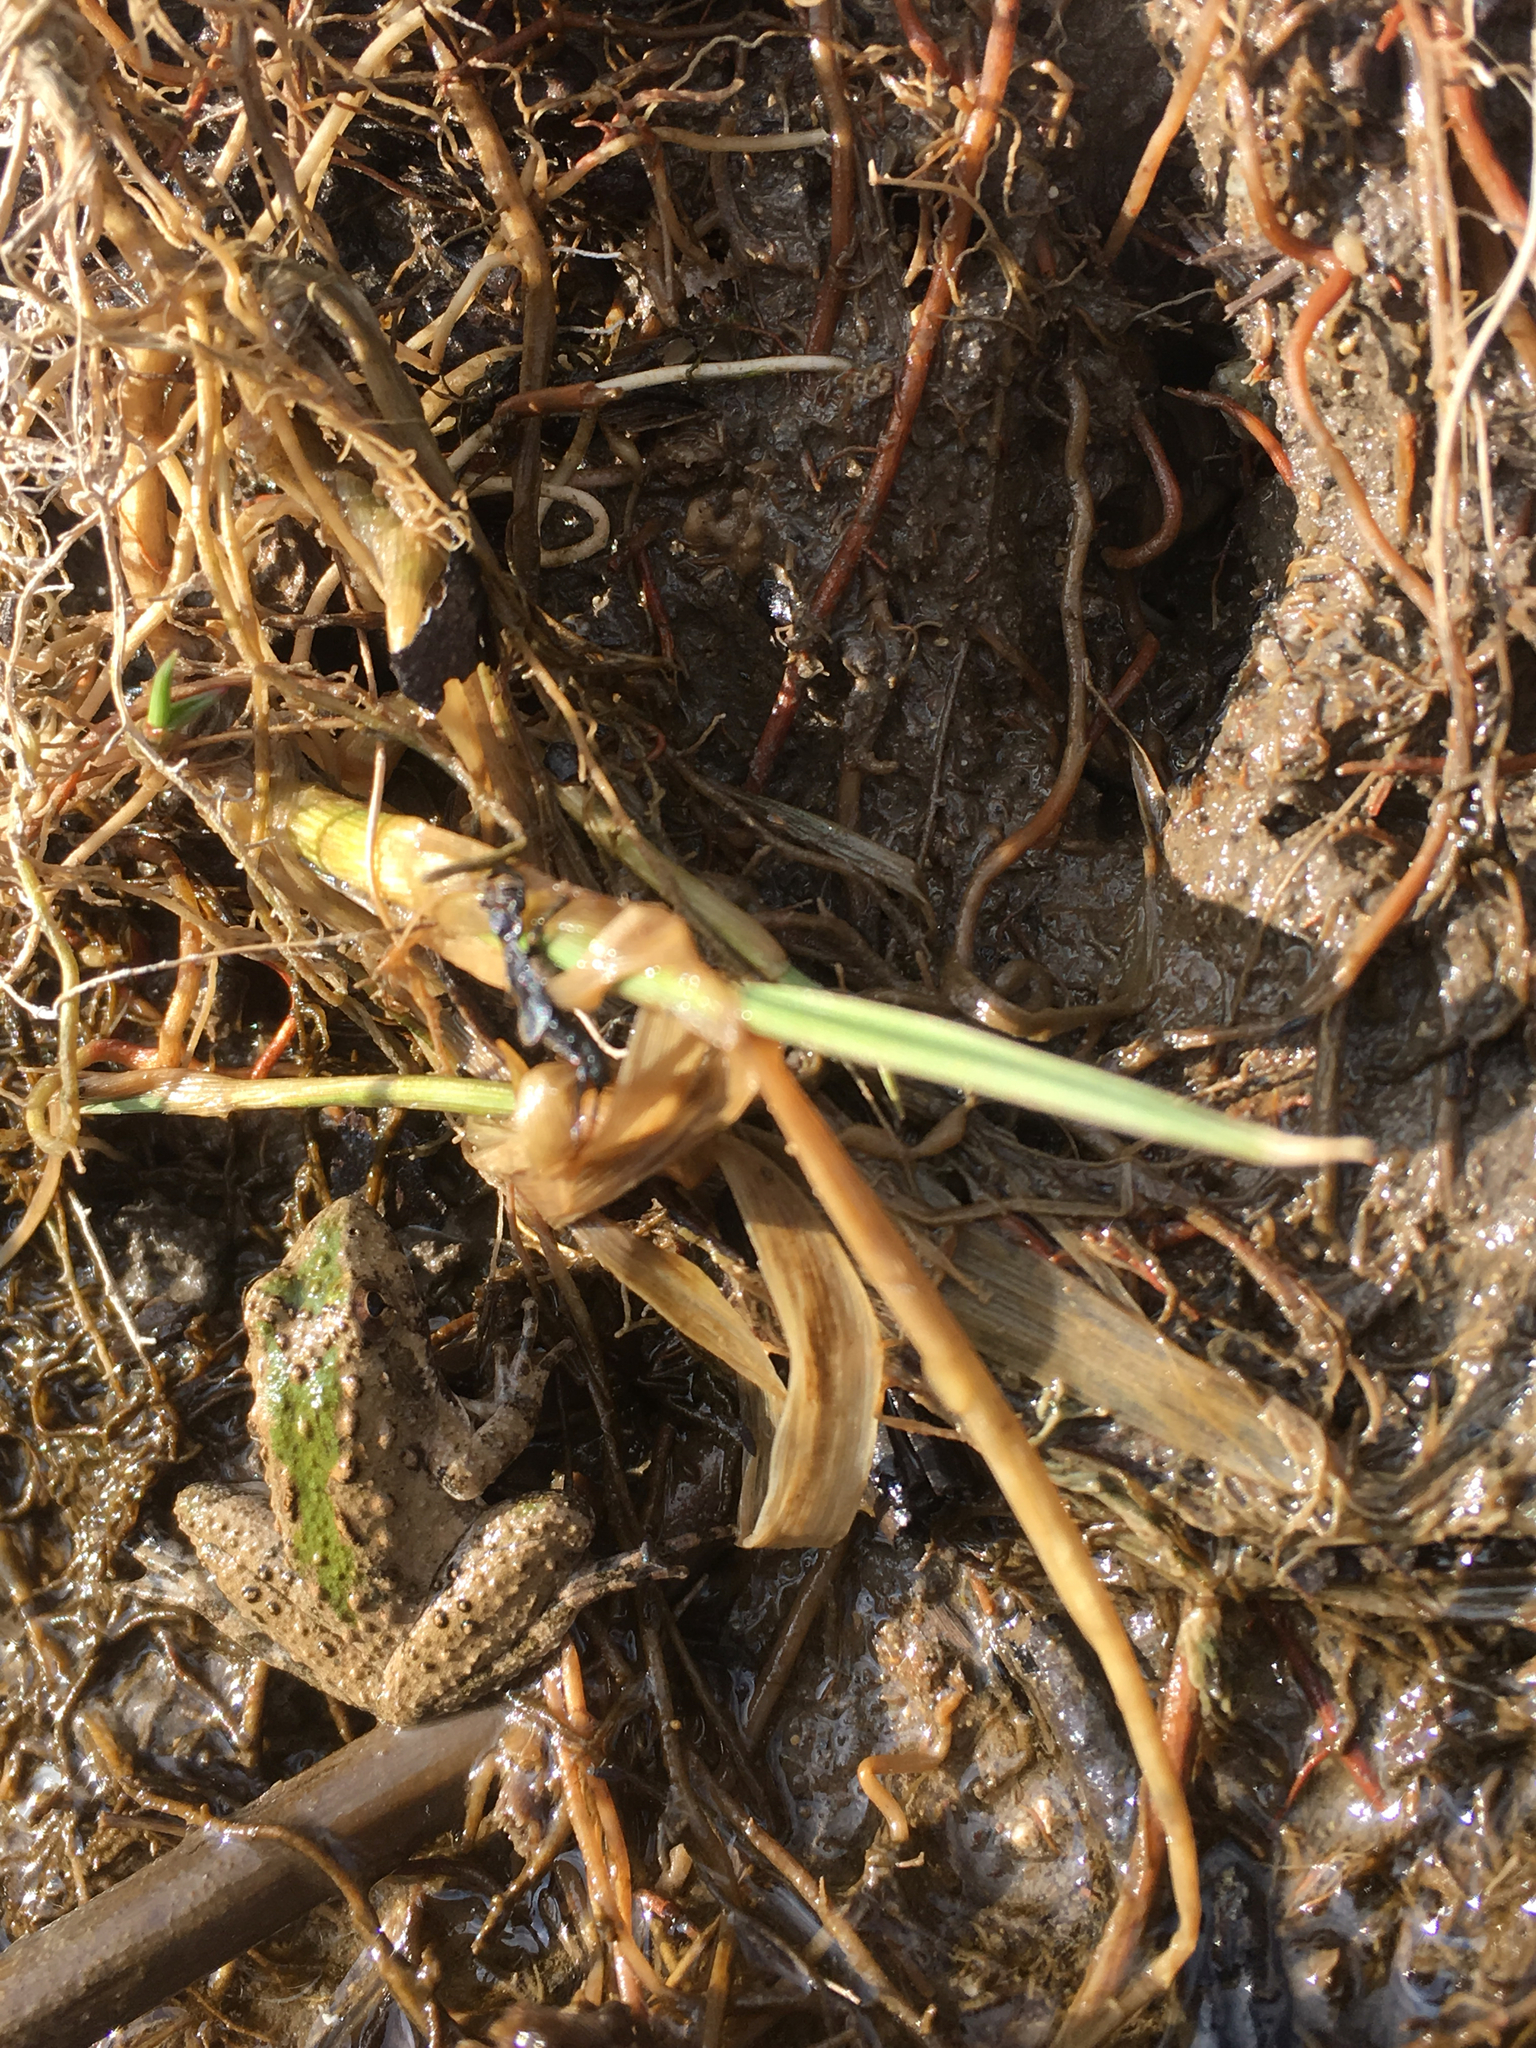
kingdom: Animalia
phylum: Chordata
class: Amphibia
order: Anura
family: Hylidae
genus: Acris
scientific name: Acris blanchardi
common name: Blanchard's cricket frog
